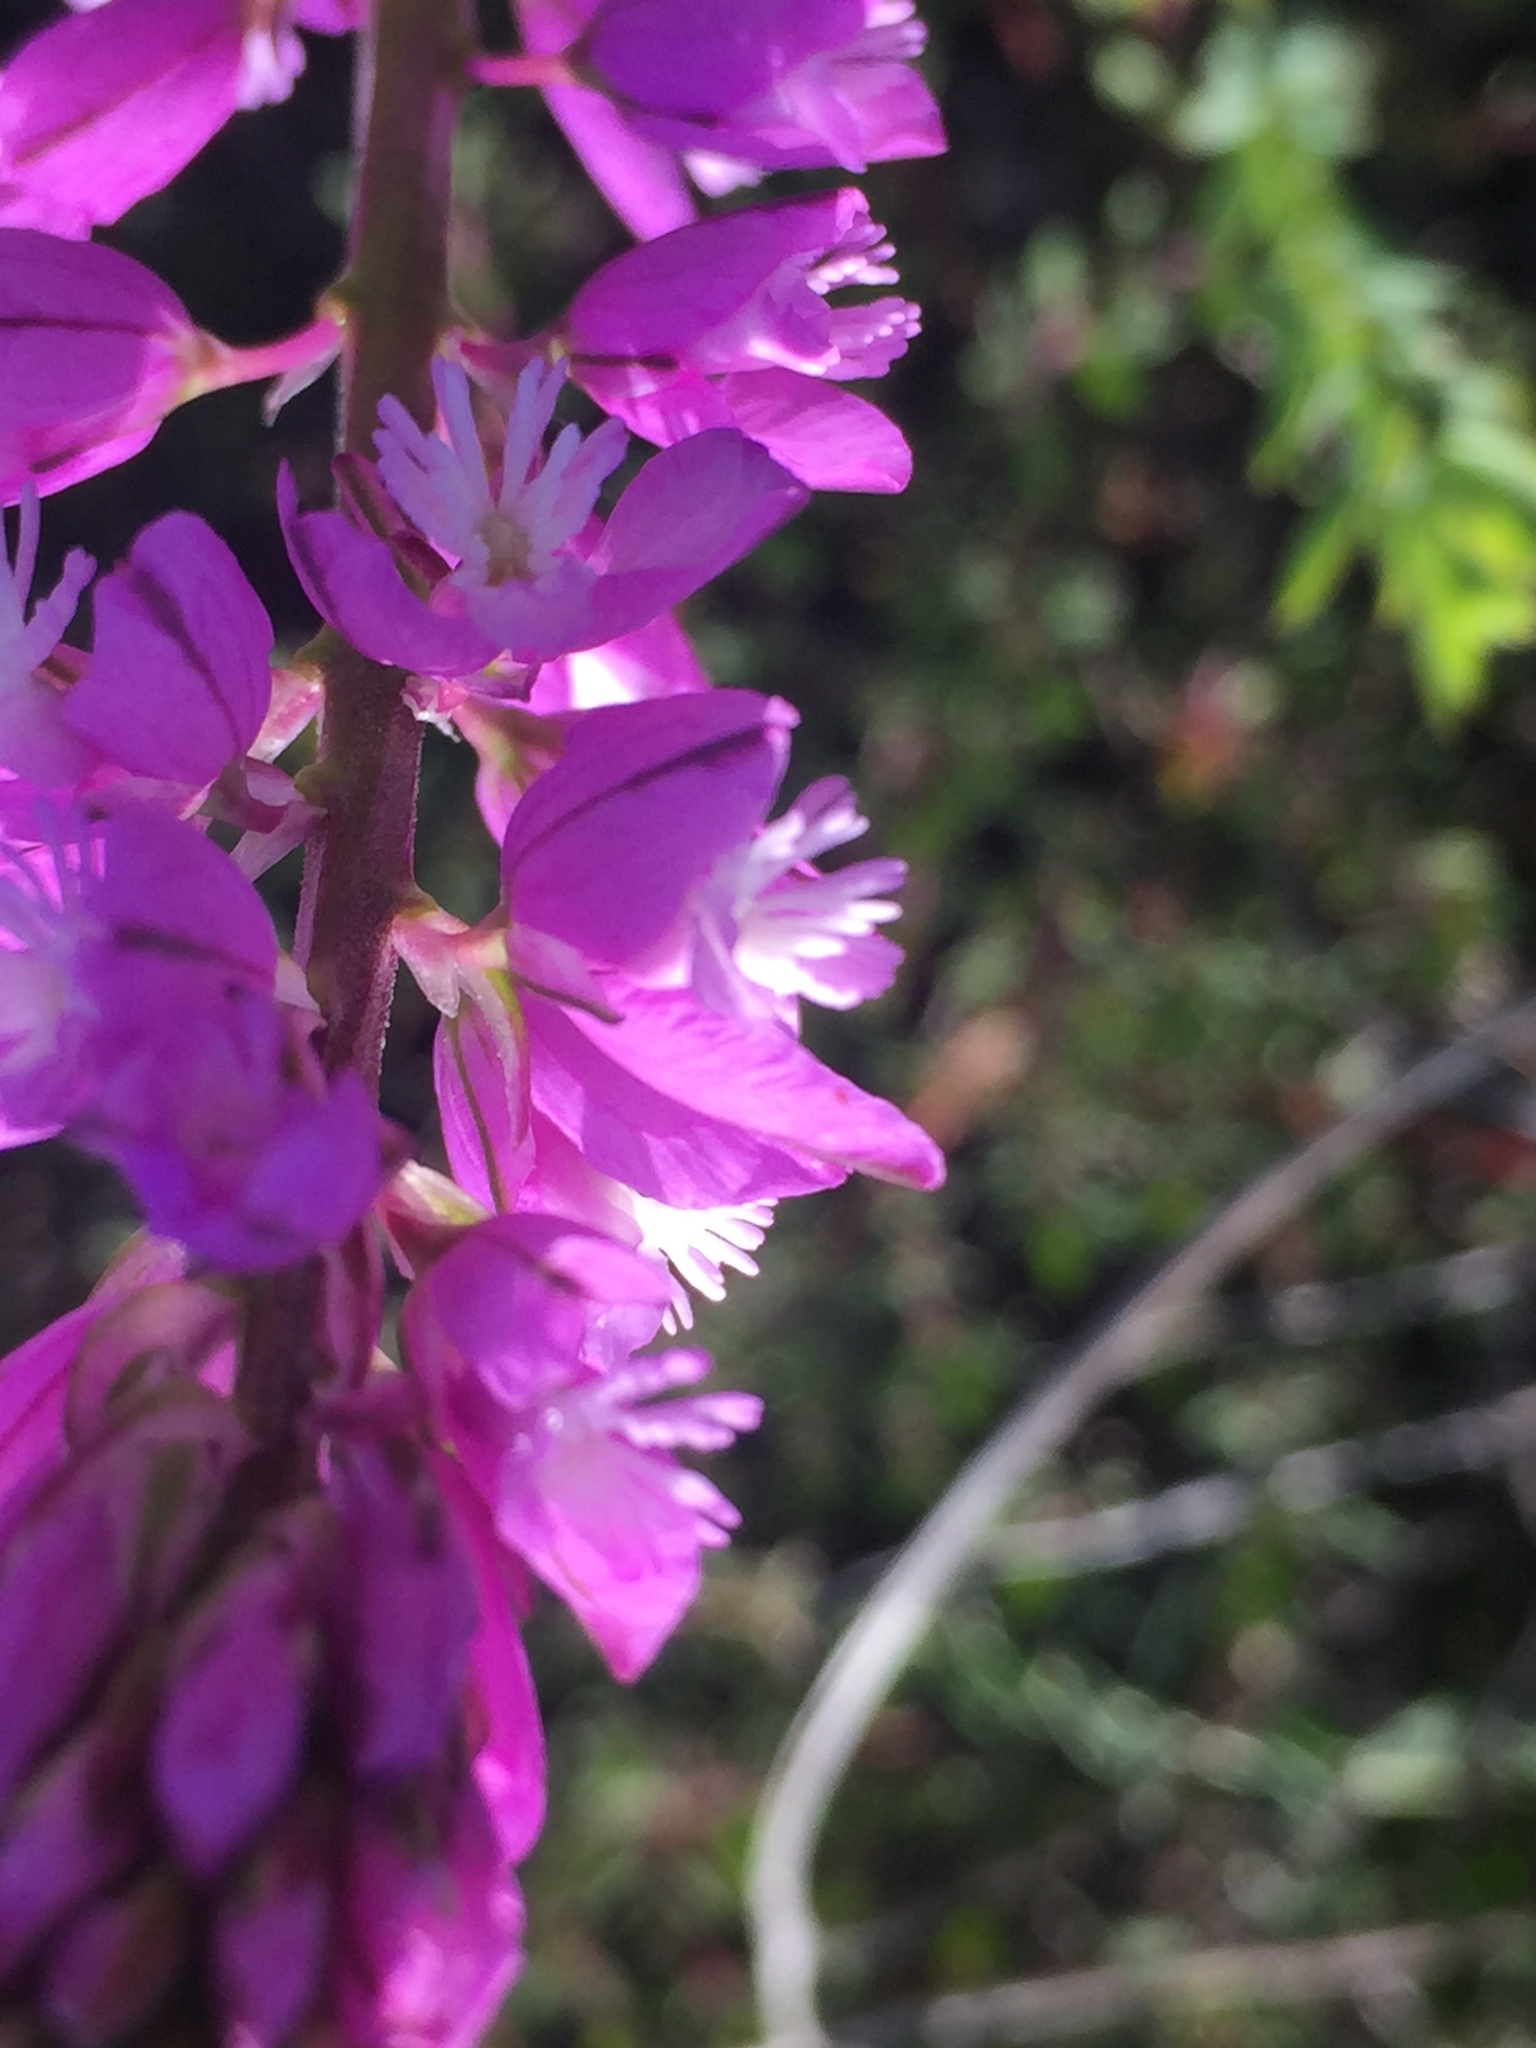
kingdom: Plantae
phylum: Tracheophyta
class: Magnoliopsida
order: Fabales
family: Polygalaceae
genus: Polygala
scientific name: Polygala nicaeensis
